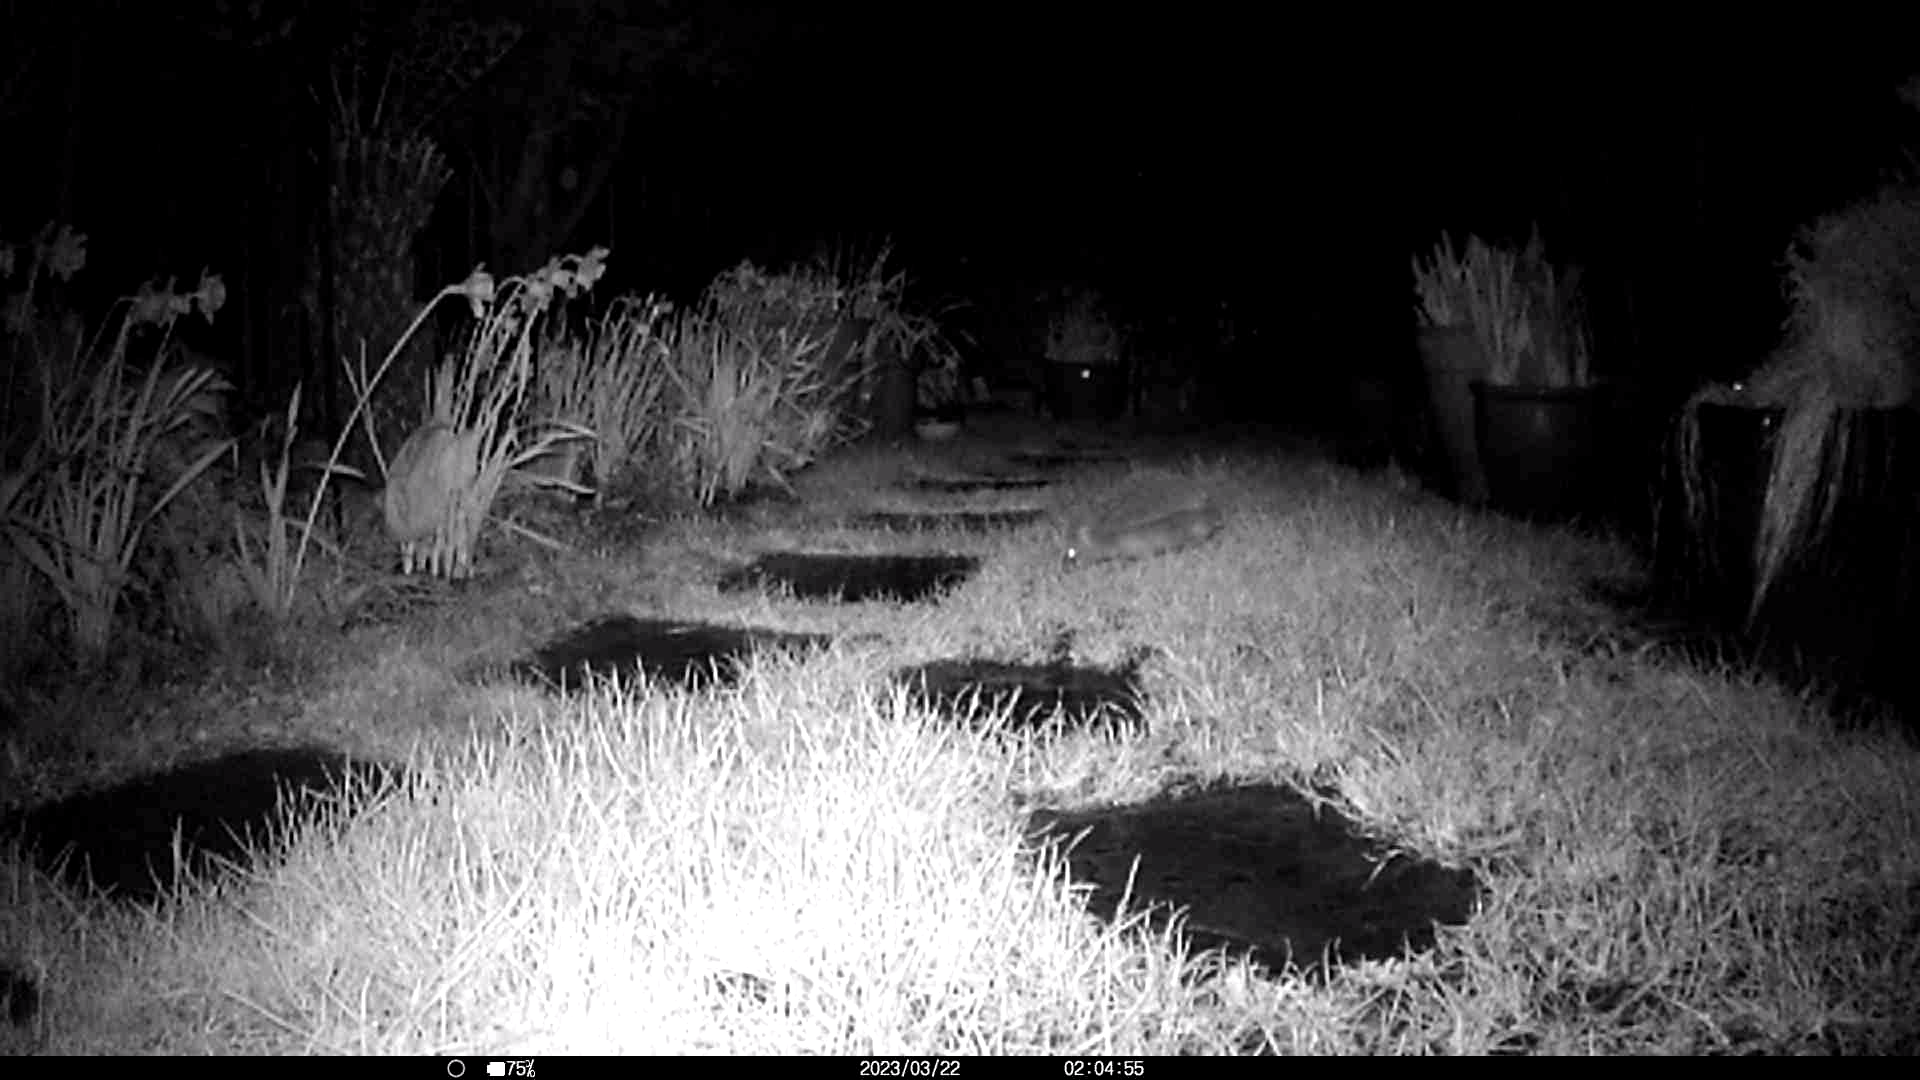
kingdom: Animalia
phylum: Chordata
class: Mammalia
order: Erinaceomorpha
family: Erinaceidae
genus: Erinaceus
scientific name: Erinaceus europaeus
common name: West european hedgehog
